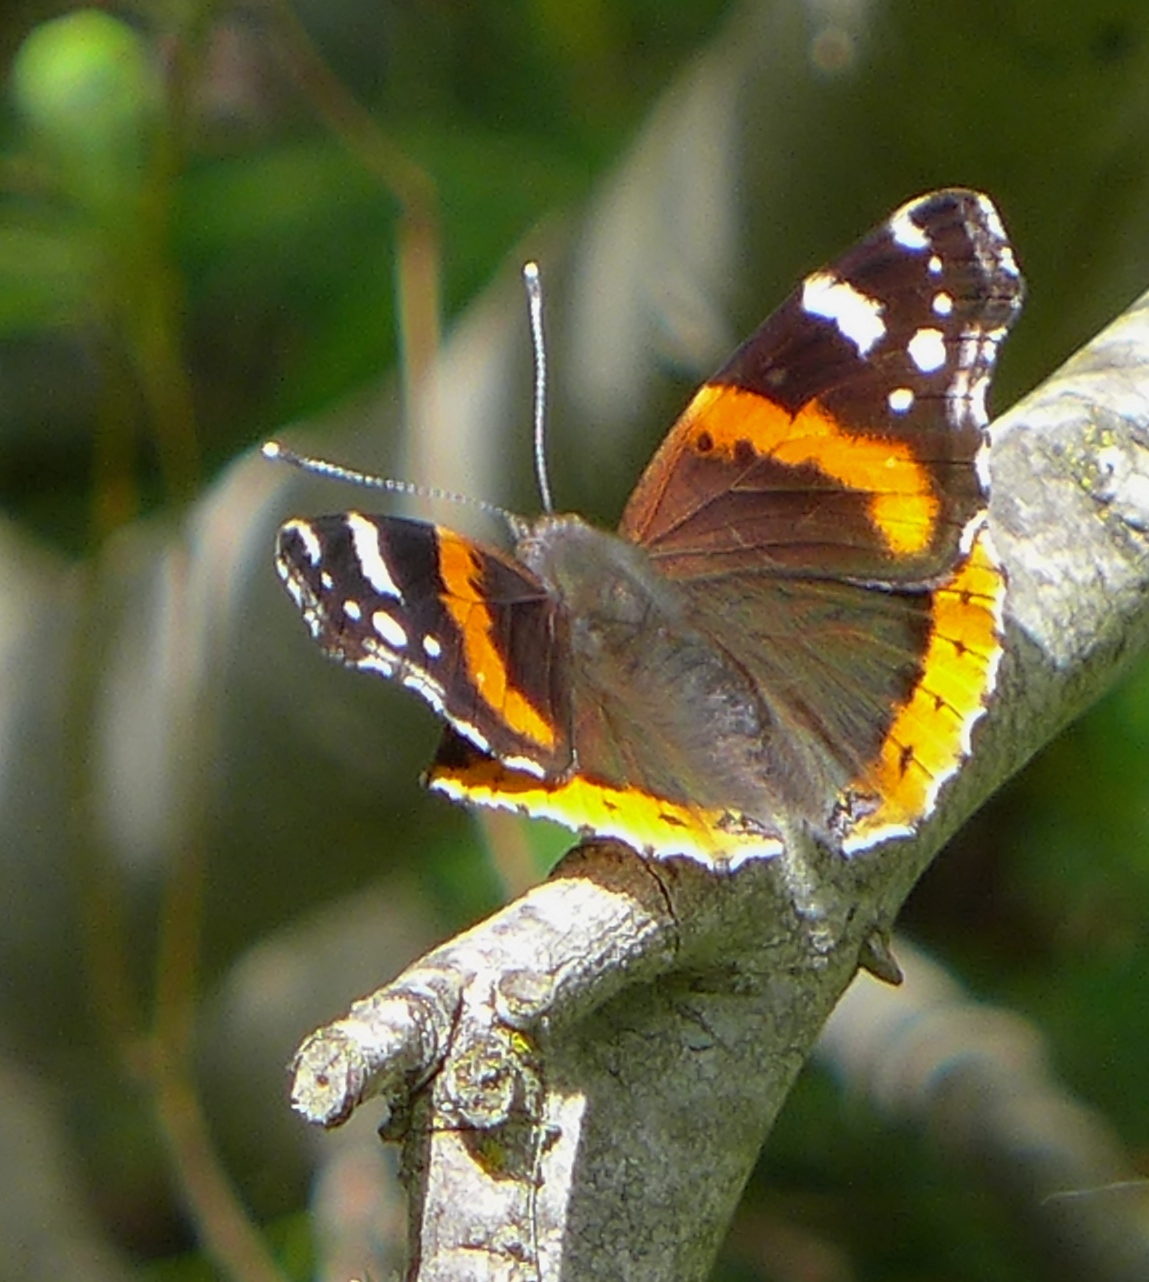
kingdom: Animalia
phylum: Arthropoda
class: Insecta
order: Lepidoptera
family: Nymphalidae
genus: Vanessa
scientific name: Vanessa atalanta
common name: Red admiral
